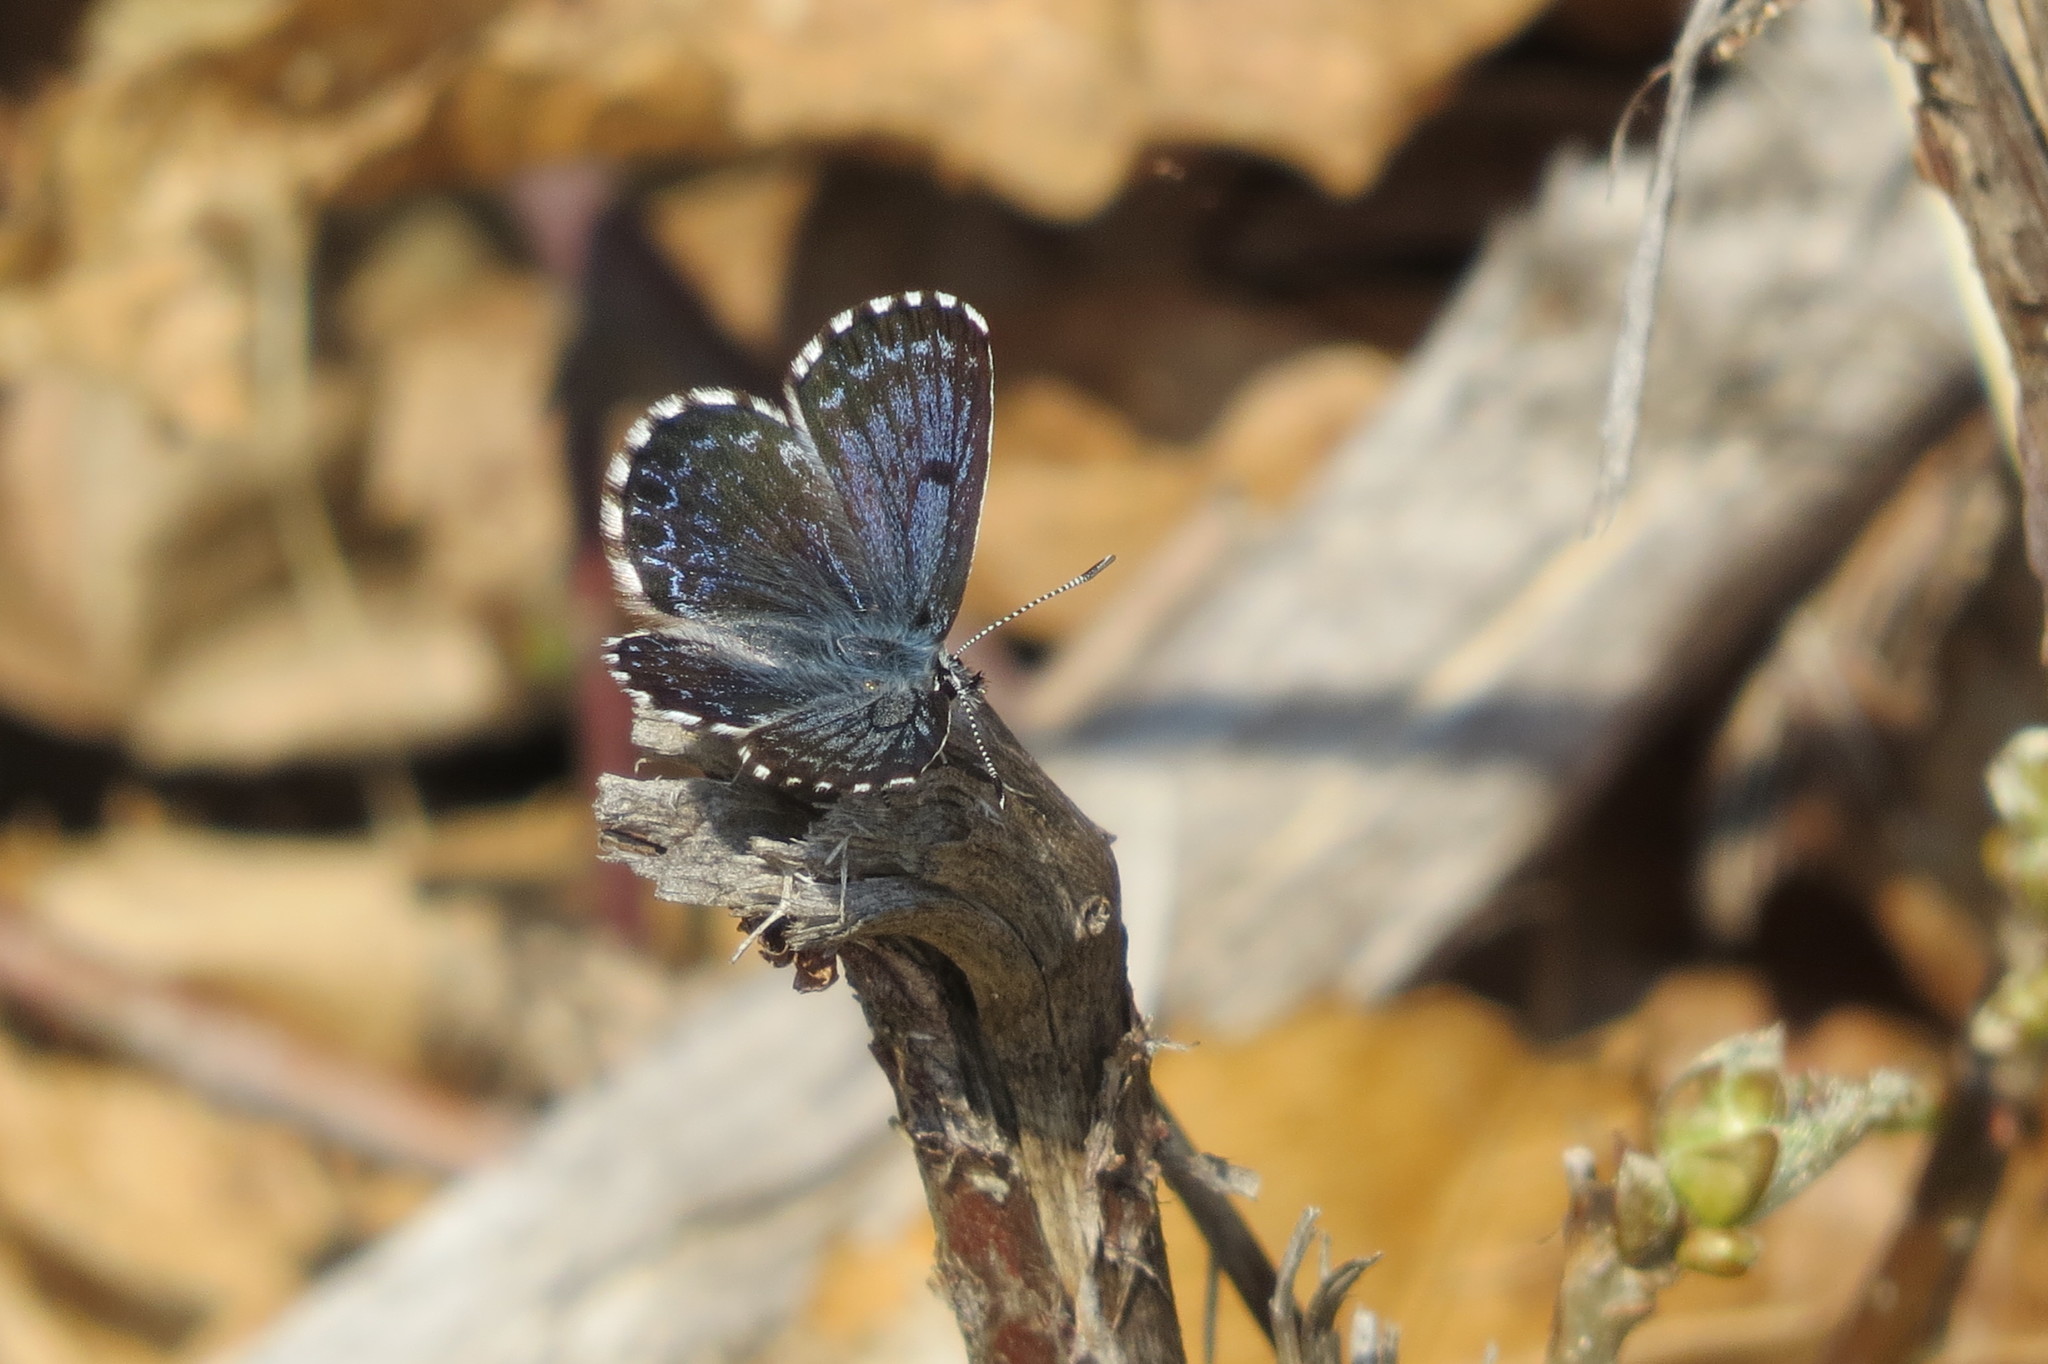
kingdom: Animalia
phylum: Arthropoda
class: Insecta
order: Lepidoptera
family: Lycaenidae
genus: Scolitantides
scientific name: Scolitantides orion
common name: Chequered blue
